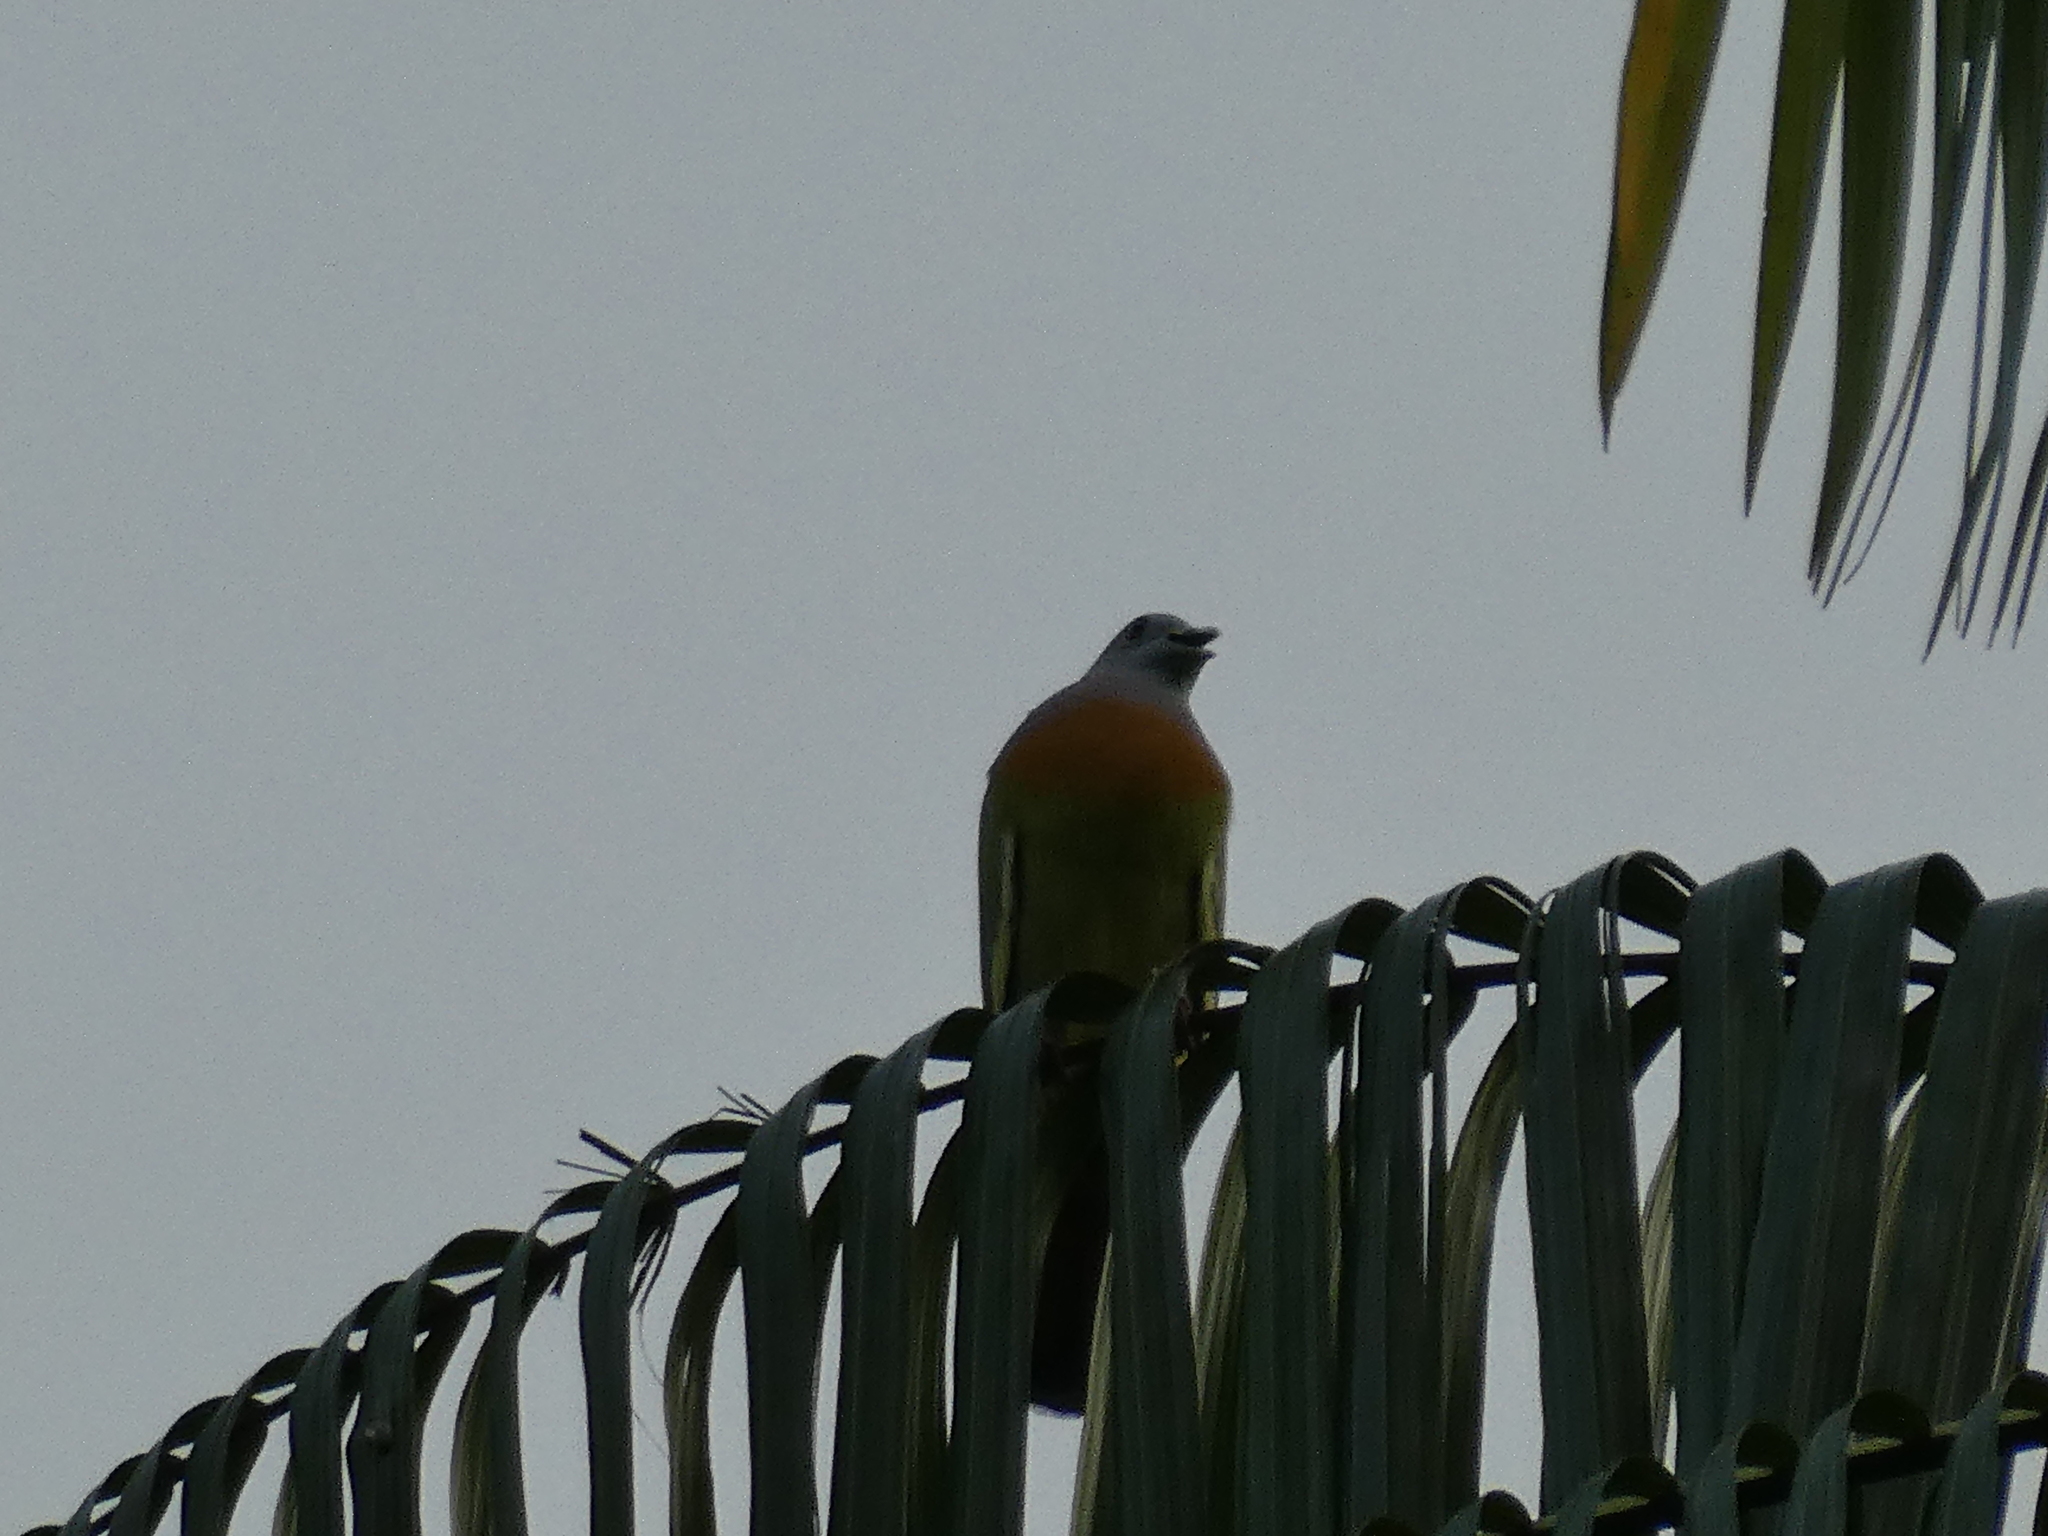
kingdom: Animalia
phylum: Chordata
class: Aves
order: Columbiformes
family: Columbidae
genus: Treron
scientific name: Treron vernans
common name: Pink-necked green pigeon
